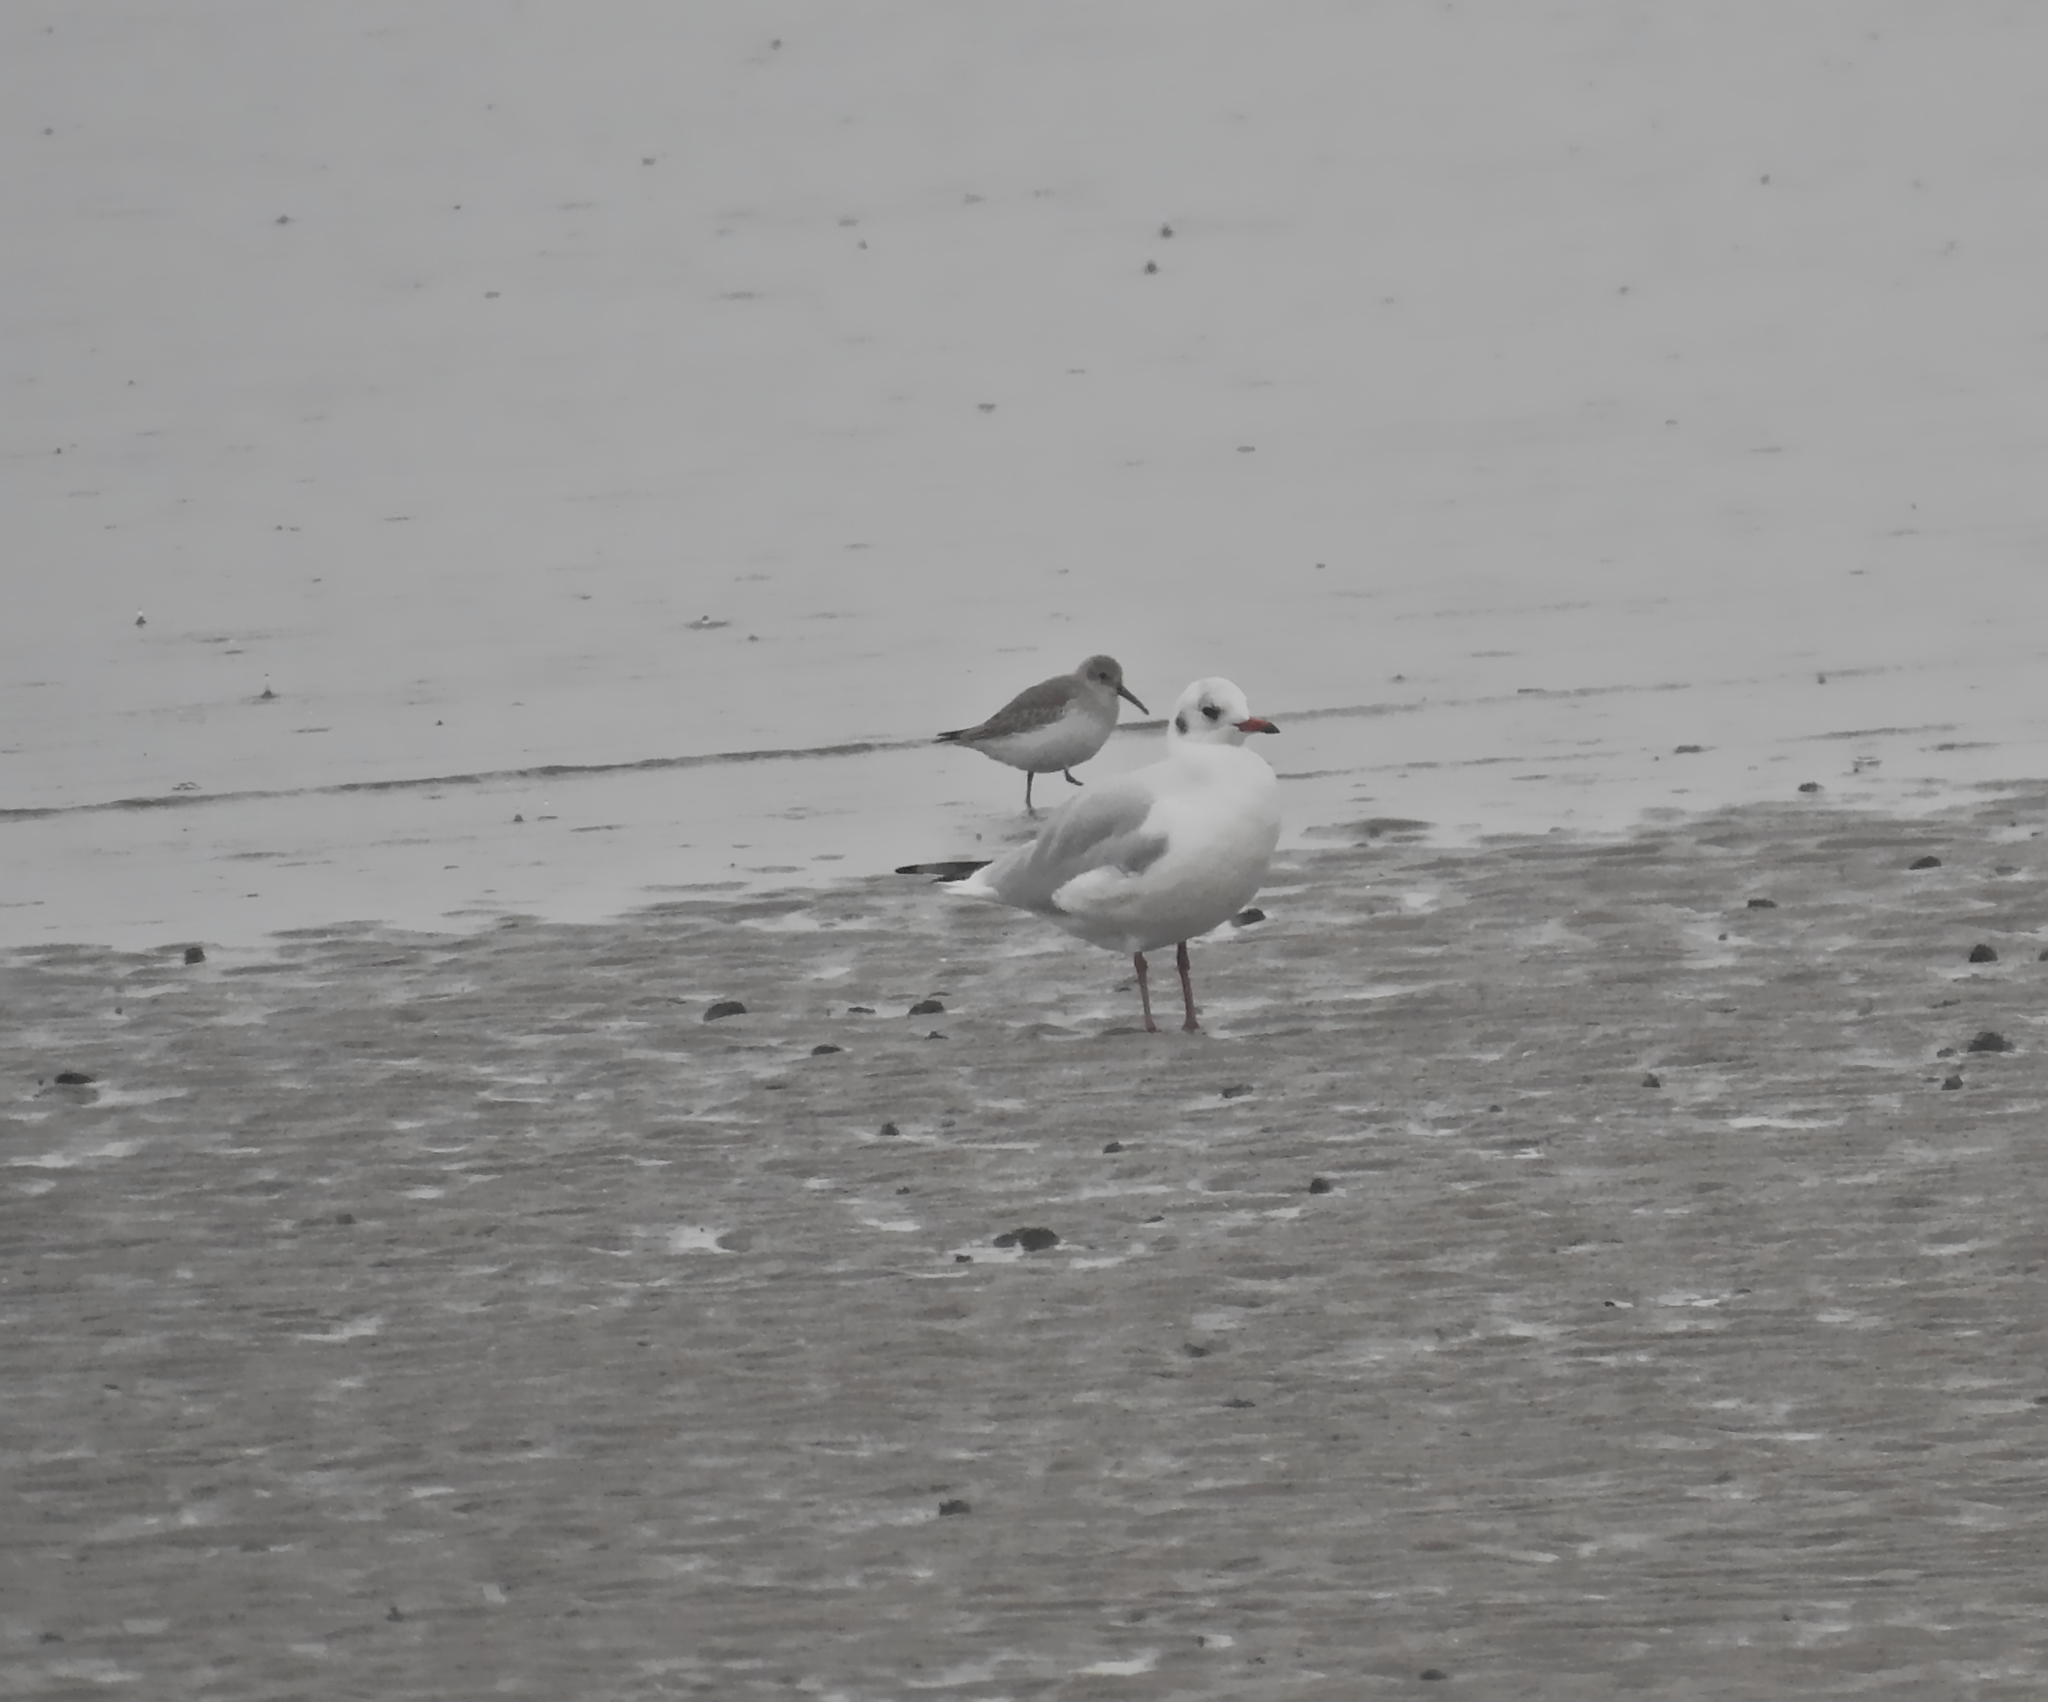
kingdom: Animalia
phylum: Chordata
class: Aves
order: Charadriiformes
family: Scolopacidae
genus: Calidris
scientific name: Calidris alpina
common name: Dunlin
